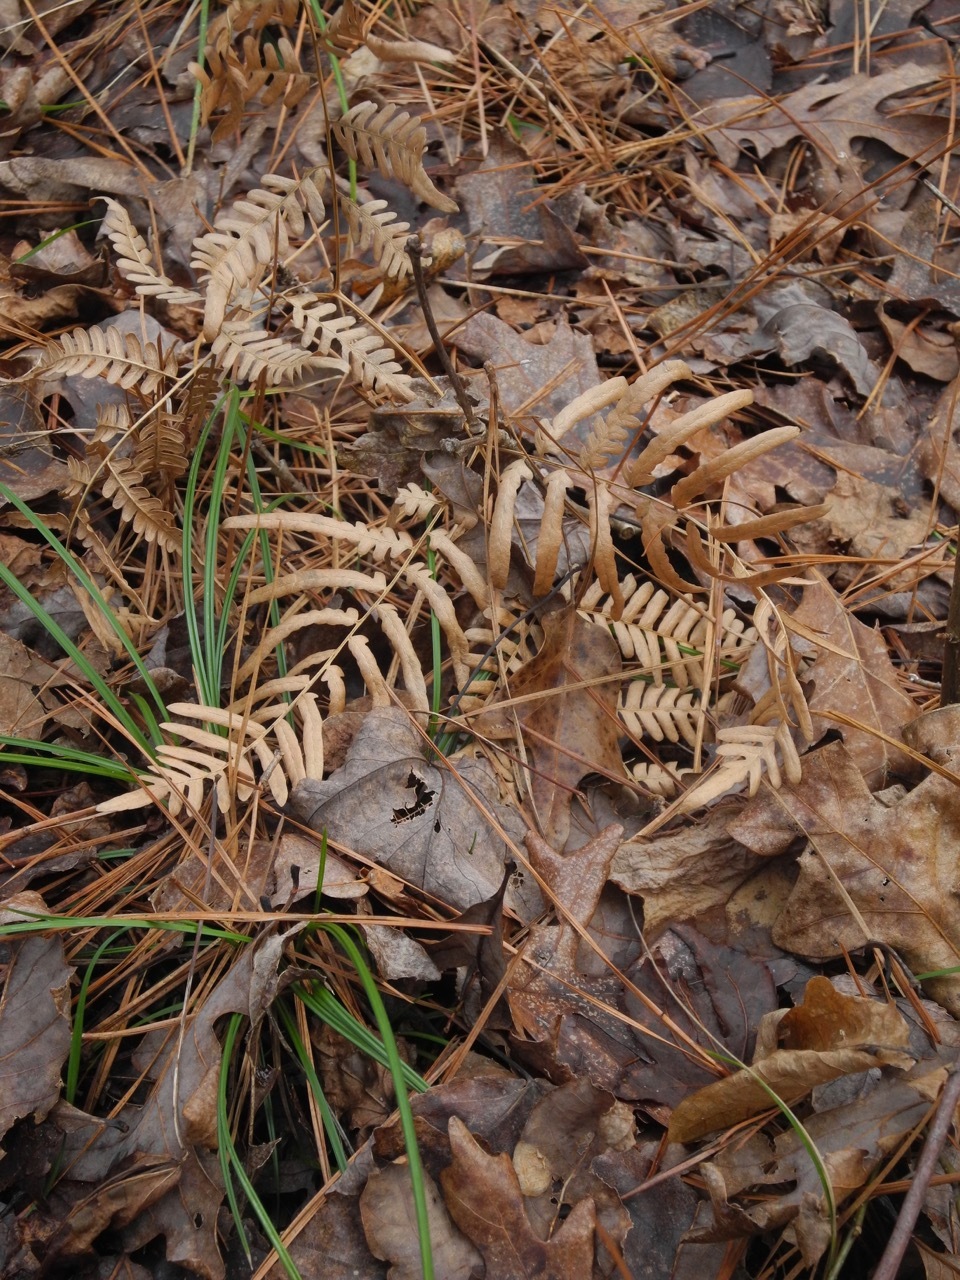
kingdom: Plantae
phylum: Tracheophyta
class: Polypodiopsida
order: Polypodiales
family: Dennstaedtiaceae
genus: Pteridium
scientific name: Pteridium aquilinum
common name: Bracken
